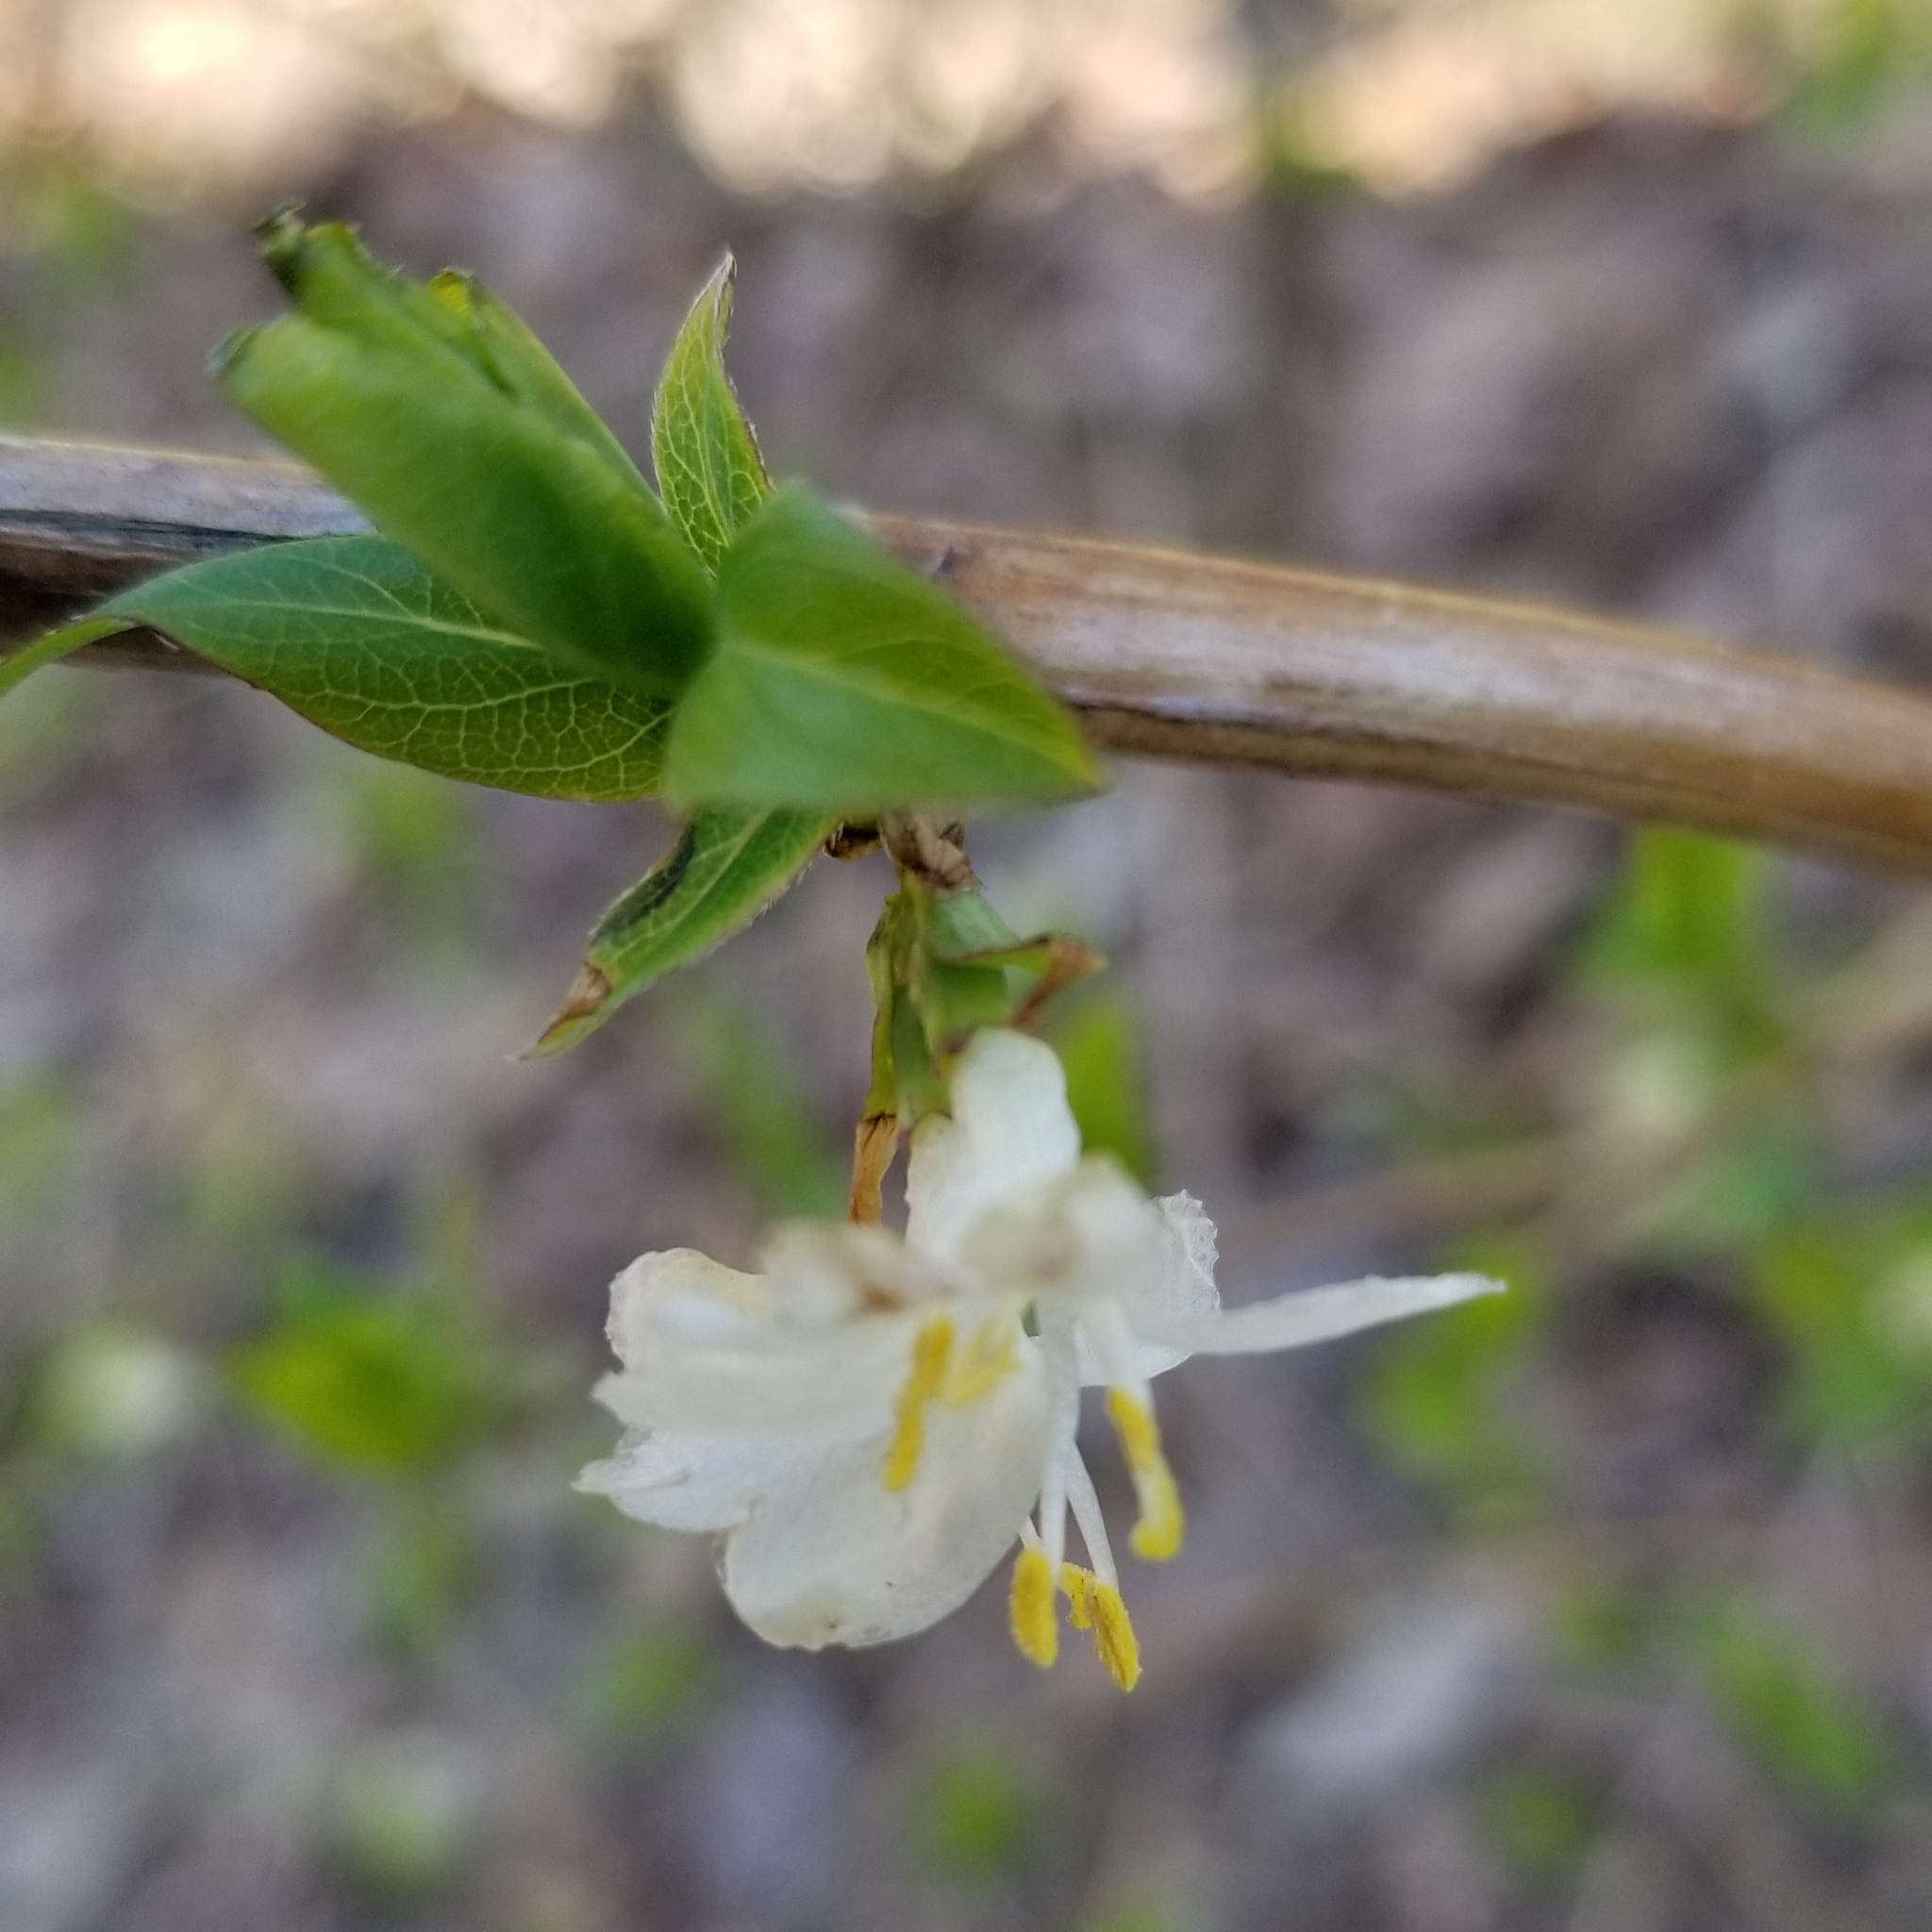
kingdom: Plantae
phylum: Tracheophyta
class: Magnoliopsida
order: Dipsacales
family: Caprifoliaceae
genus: Lonicera
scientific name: Lonicera fragrantissima
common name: Fragrant honeysuckle
